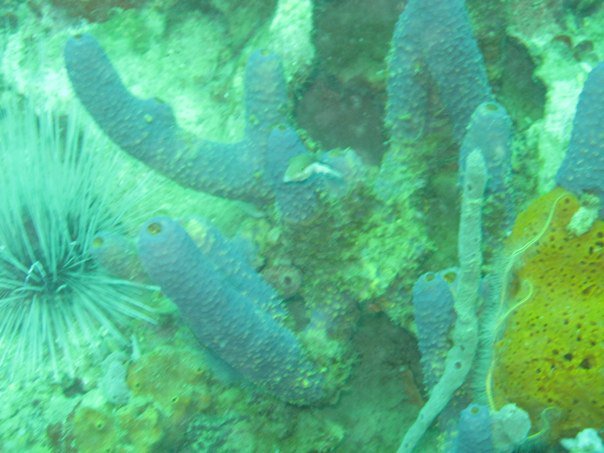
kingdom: Animalia
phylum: Porifera
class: Demospongiae
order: Verongiida
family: Aplysinidae
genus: Aiolochroia
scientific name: Aiolochroia crassa
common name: Branching tube sponge
